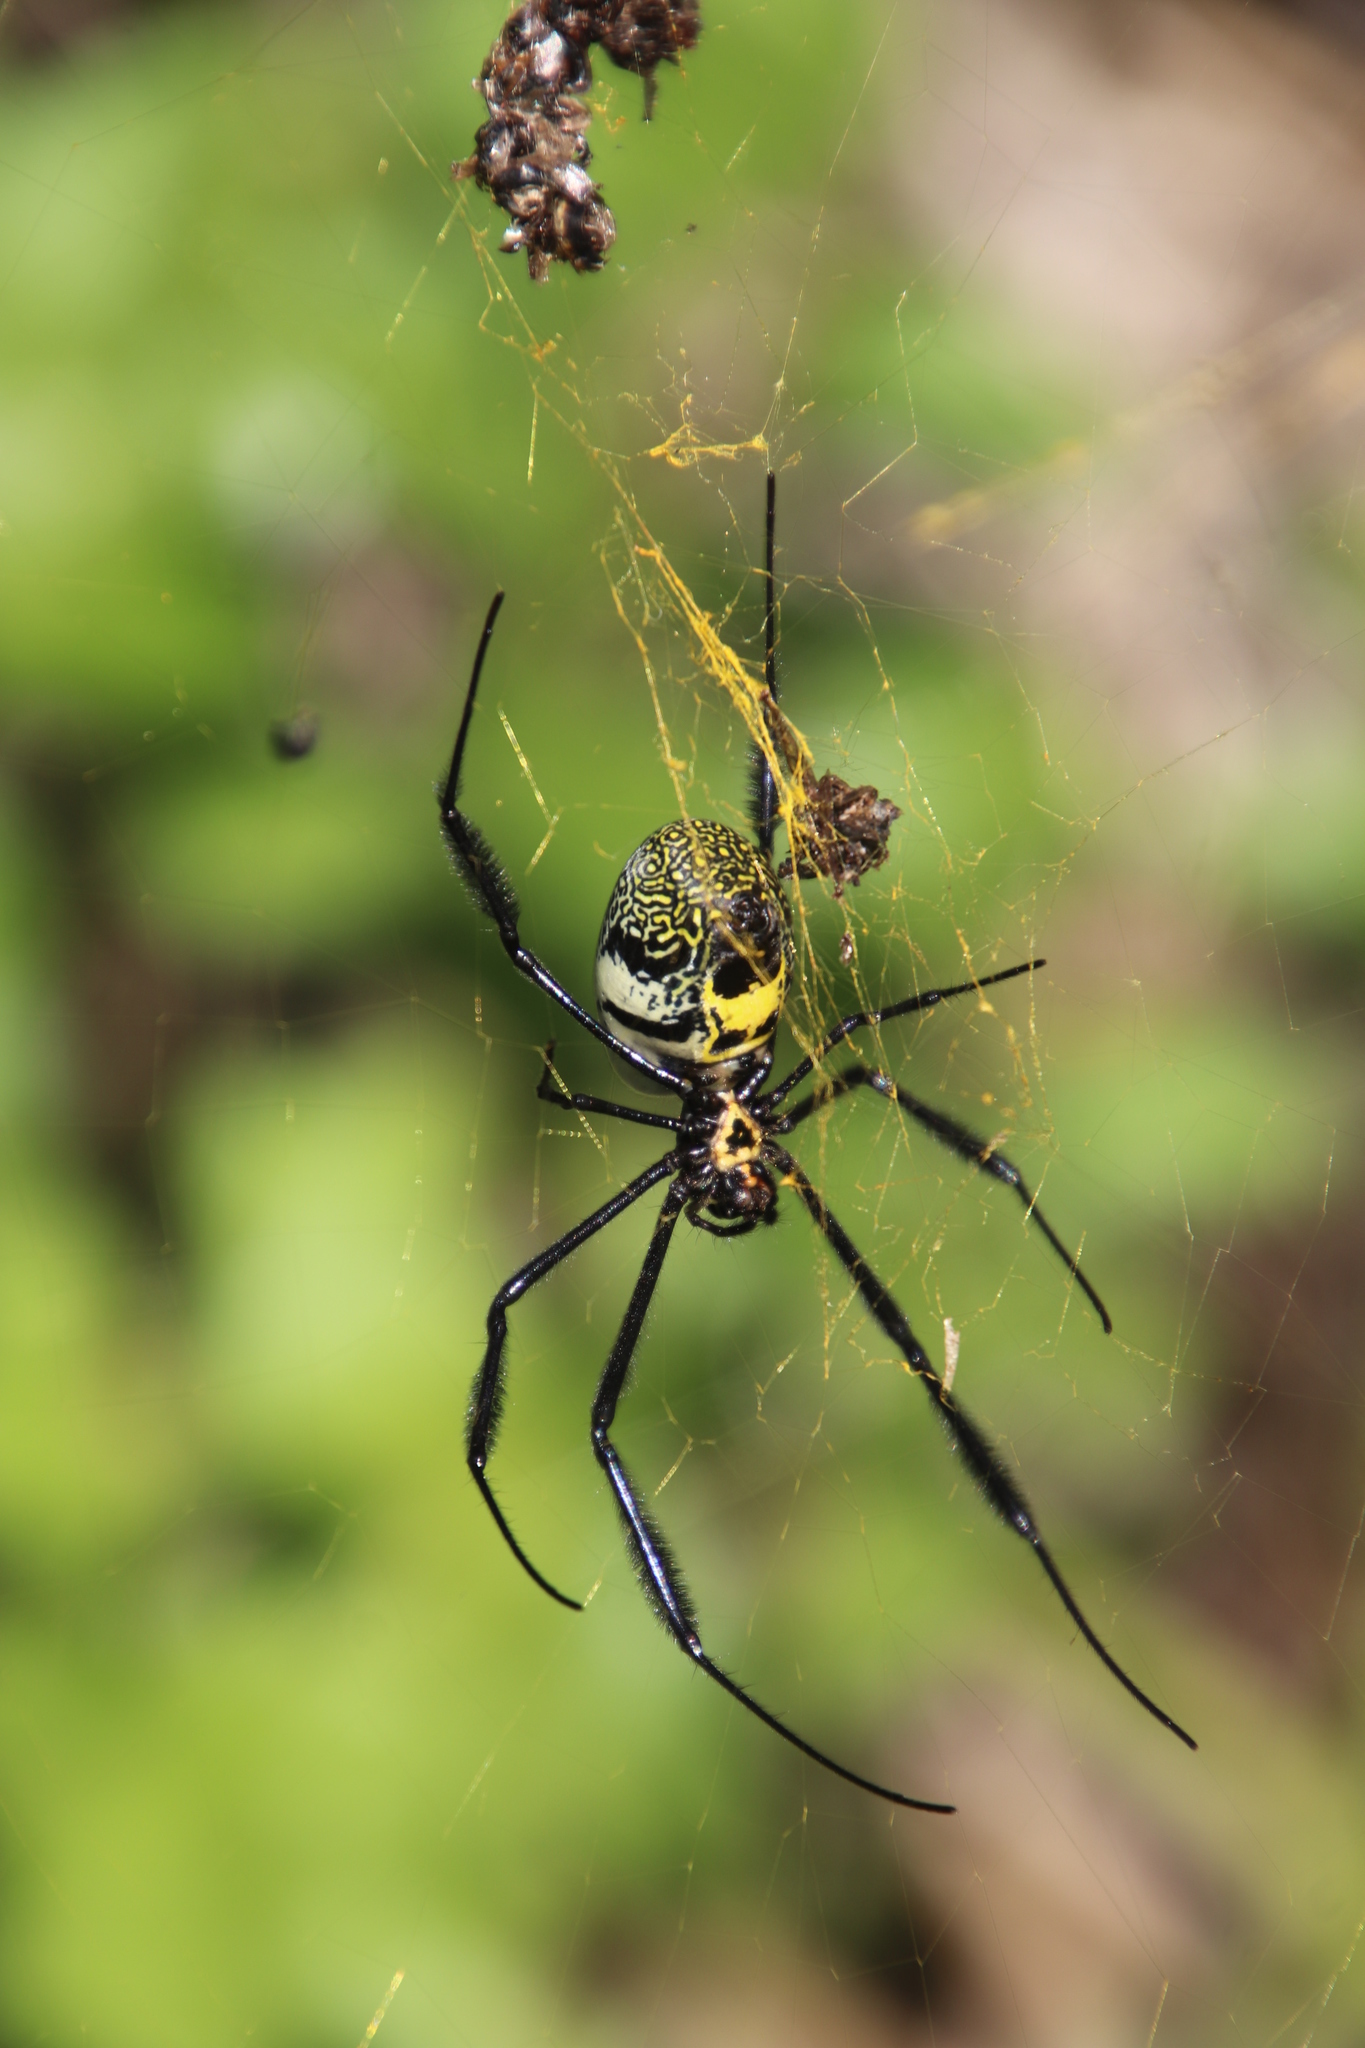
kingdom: Animalia
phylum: Arthropoda
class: Arachnida
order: Araneae
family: Araneidae
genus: Trichonephila
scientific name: Trichonephila fenestrata
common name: Hairy golden orb weaver
